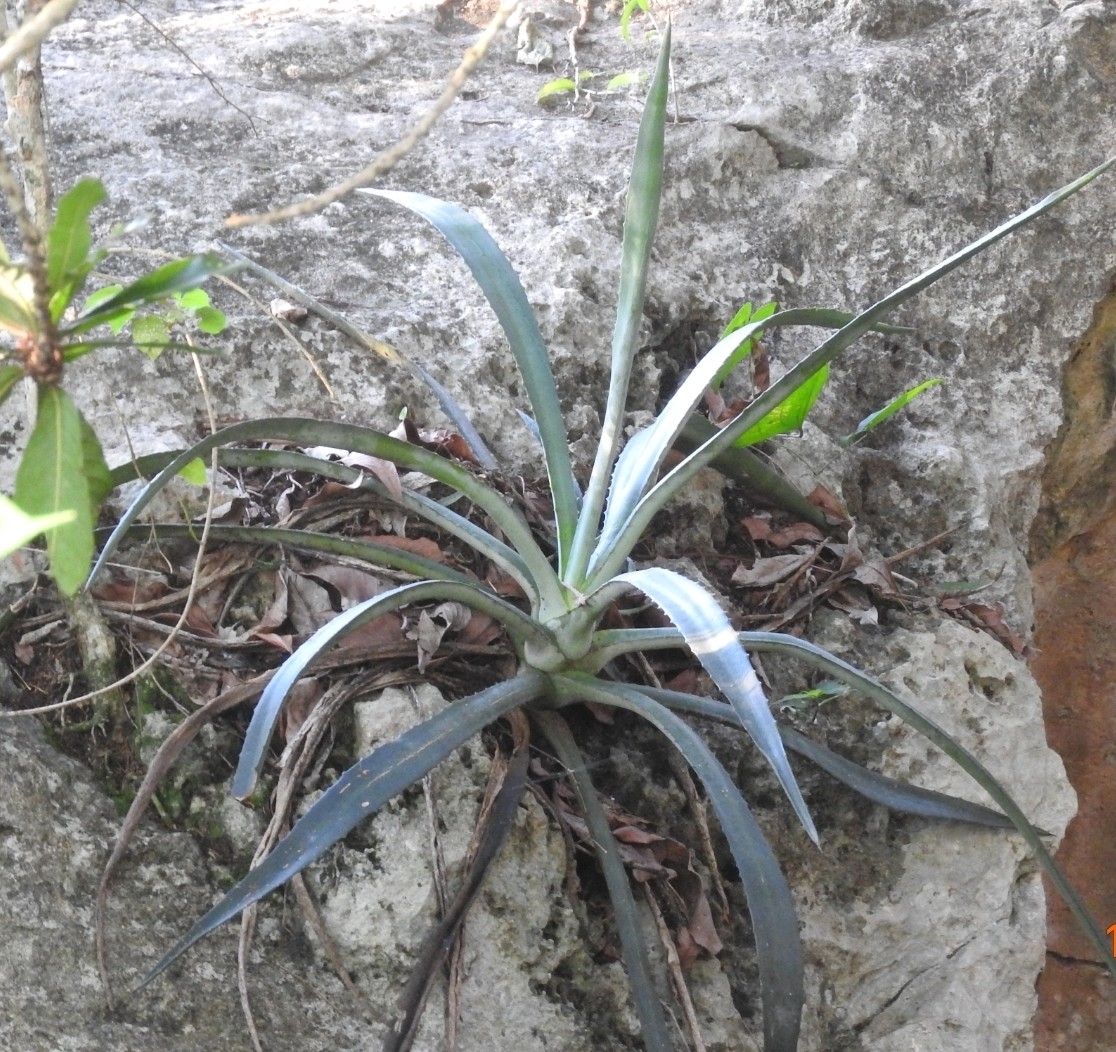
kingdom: Plantae
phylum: Tracheophyta
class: Liliopsida
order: Asparagales
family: Asparagaceae
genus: Agave
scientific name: Agave vivipara
